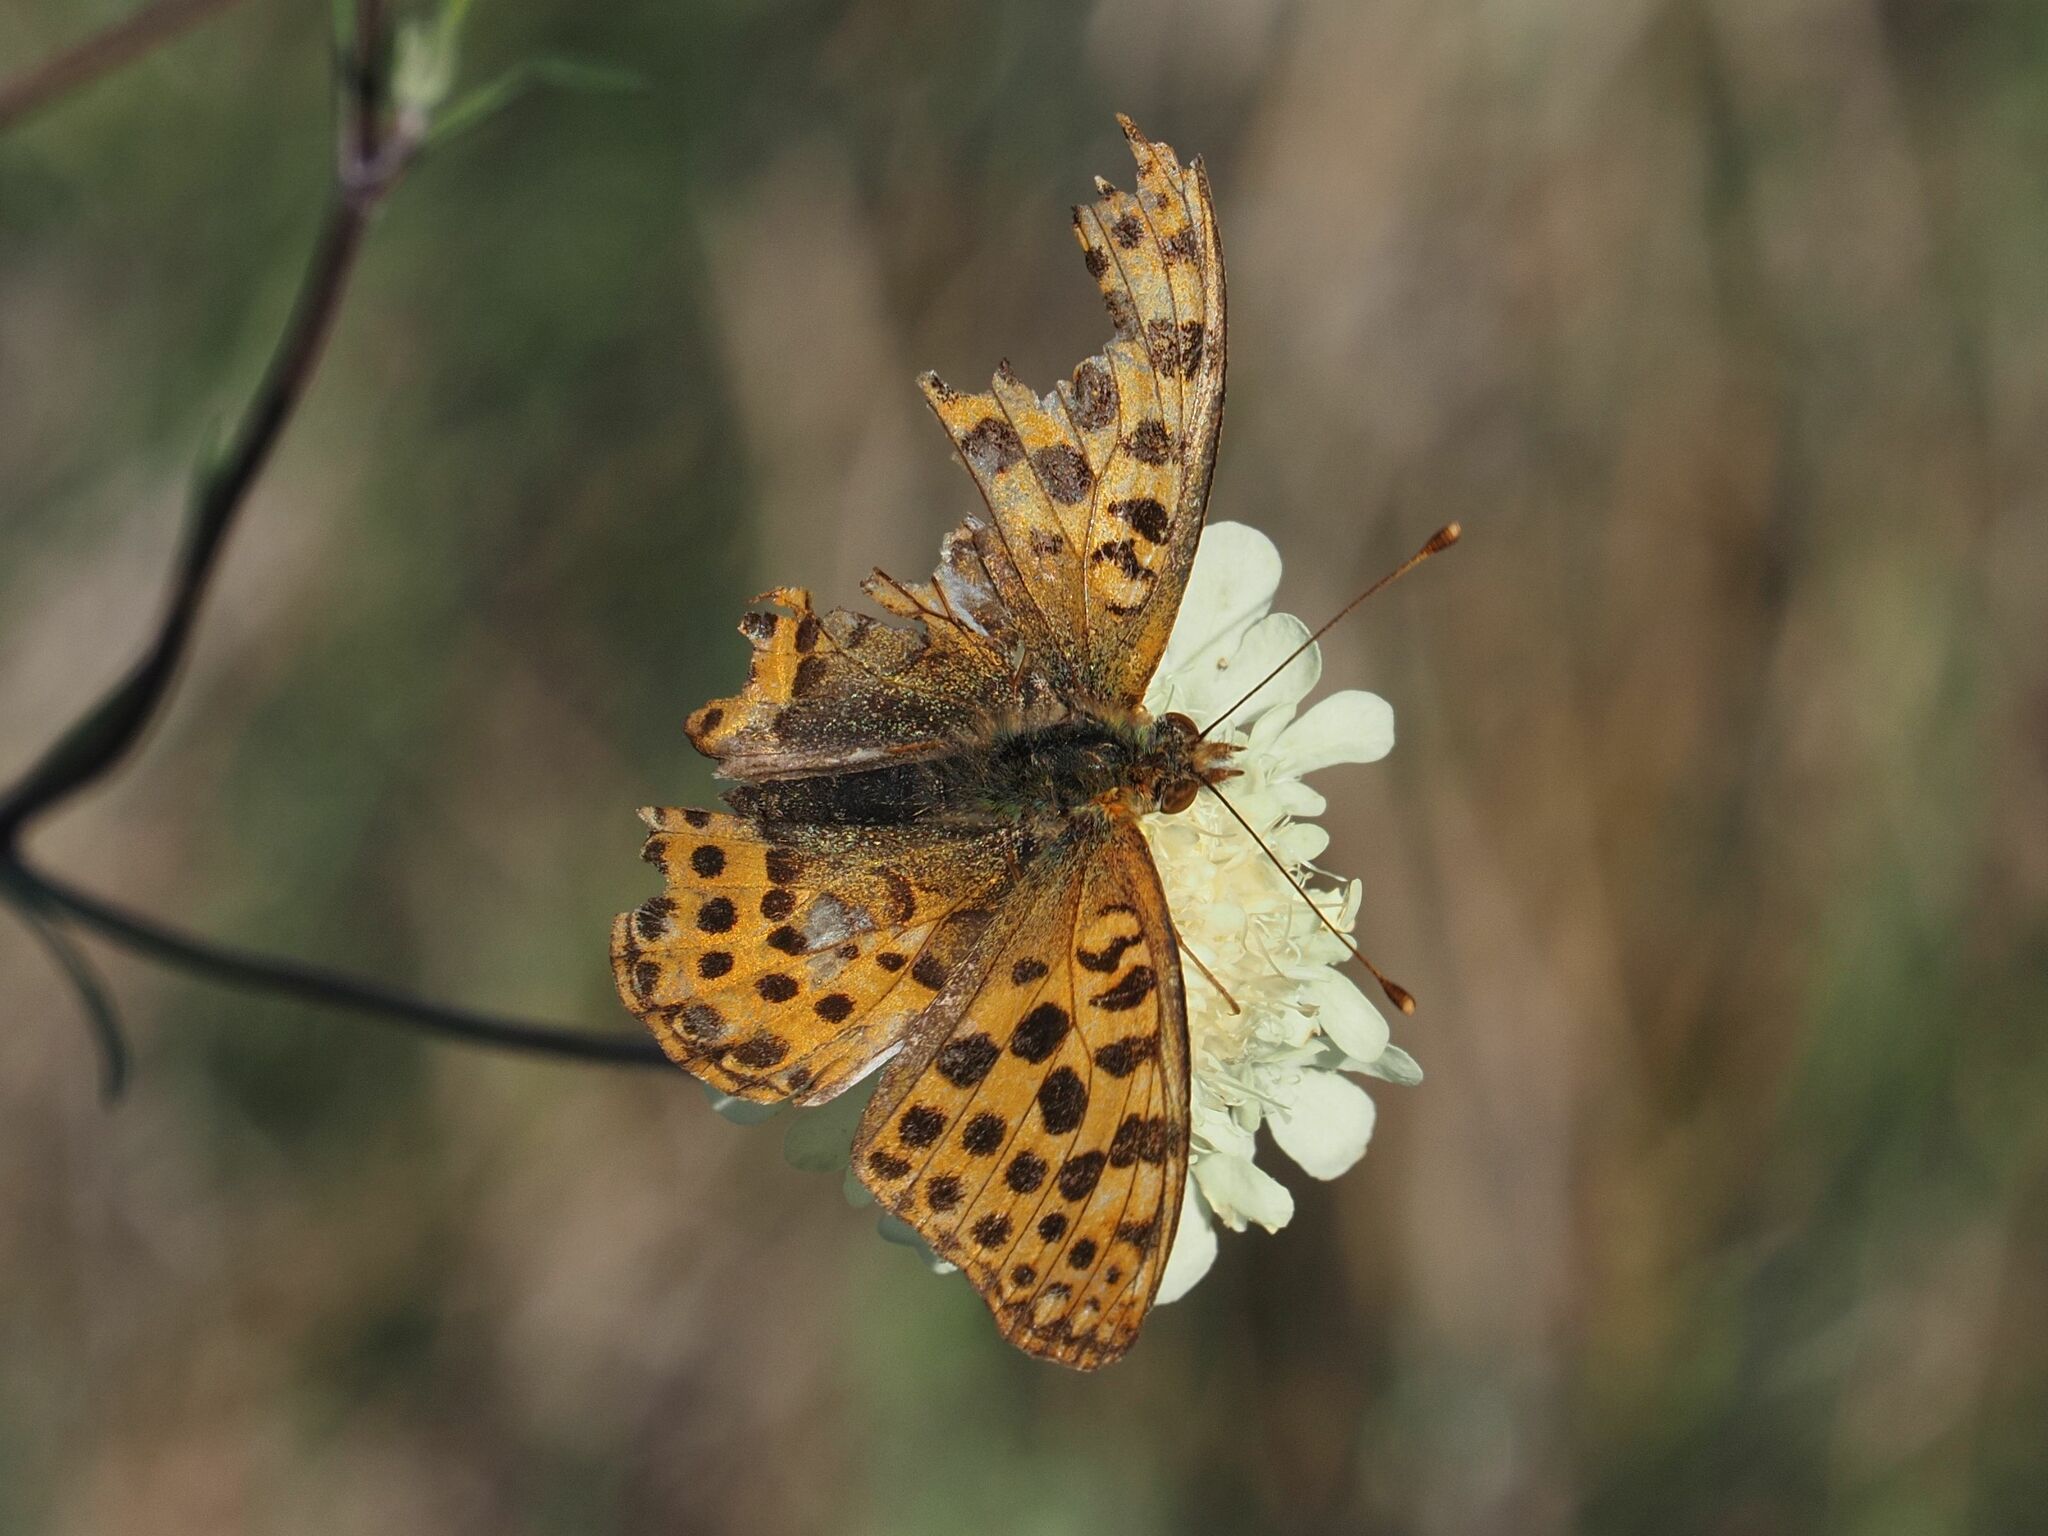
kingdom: Animalia
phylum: Arthropoda
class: Insecta
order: Lepidoptera
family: Nymphalidae
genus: Issoria
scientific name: Issoria lathonia
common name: Queen of spain fritillary
